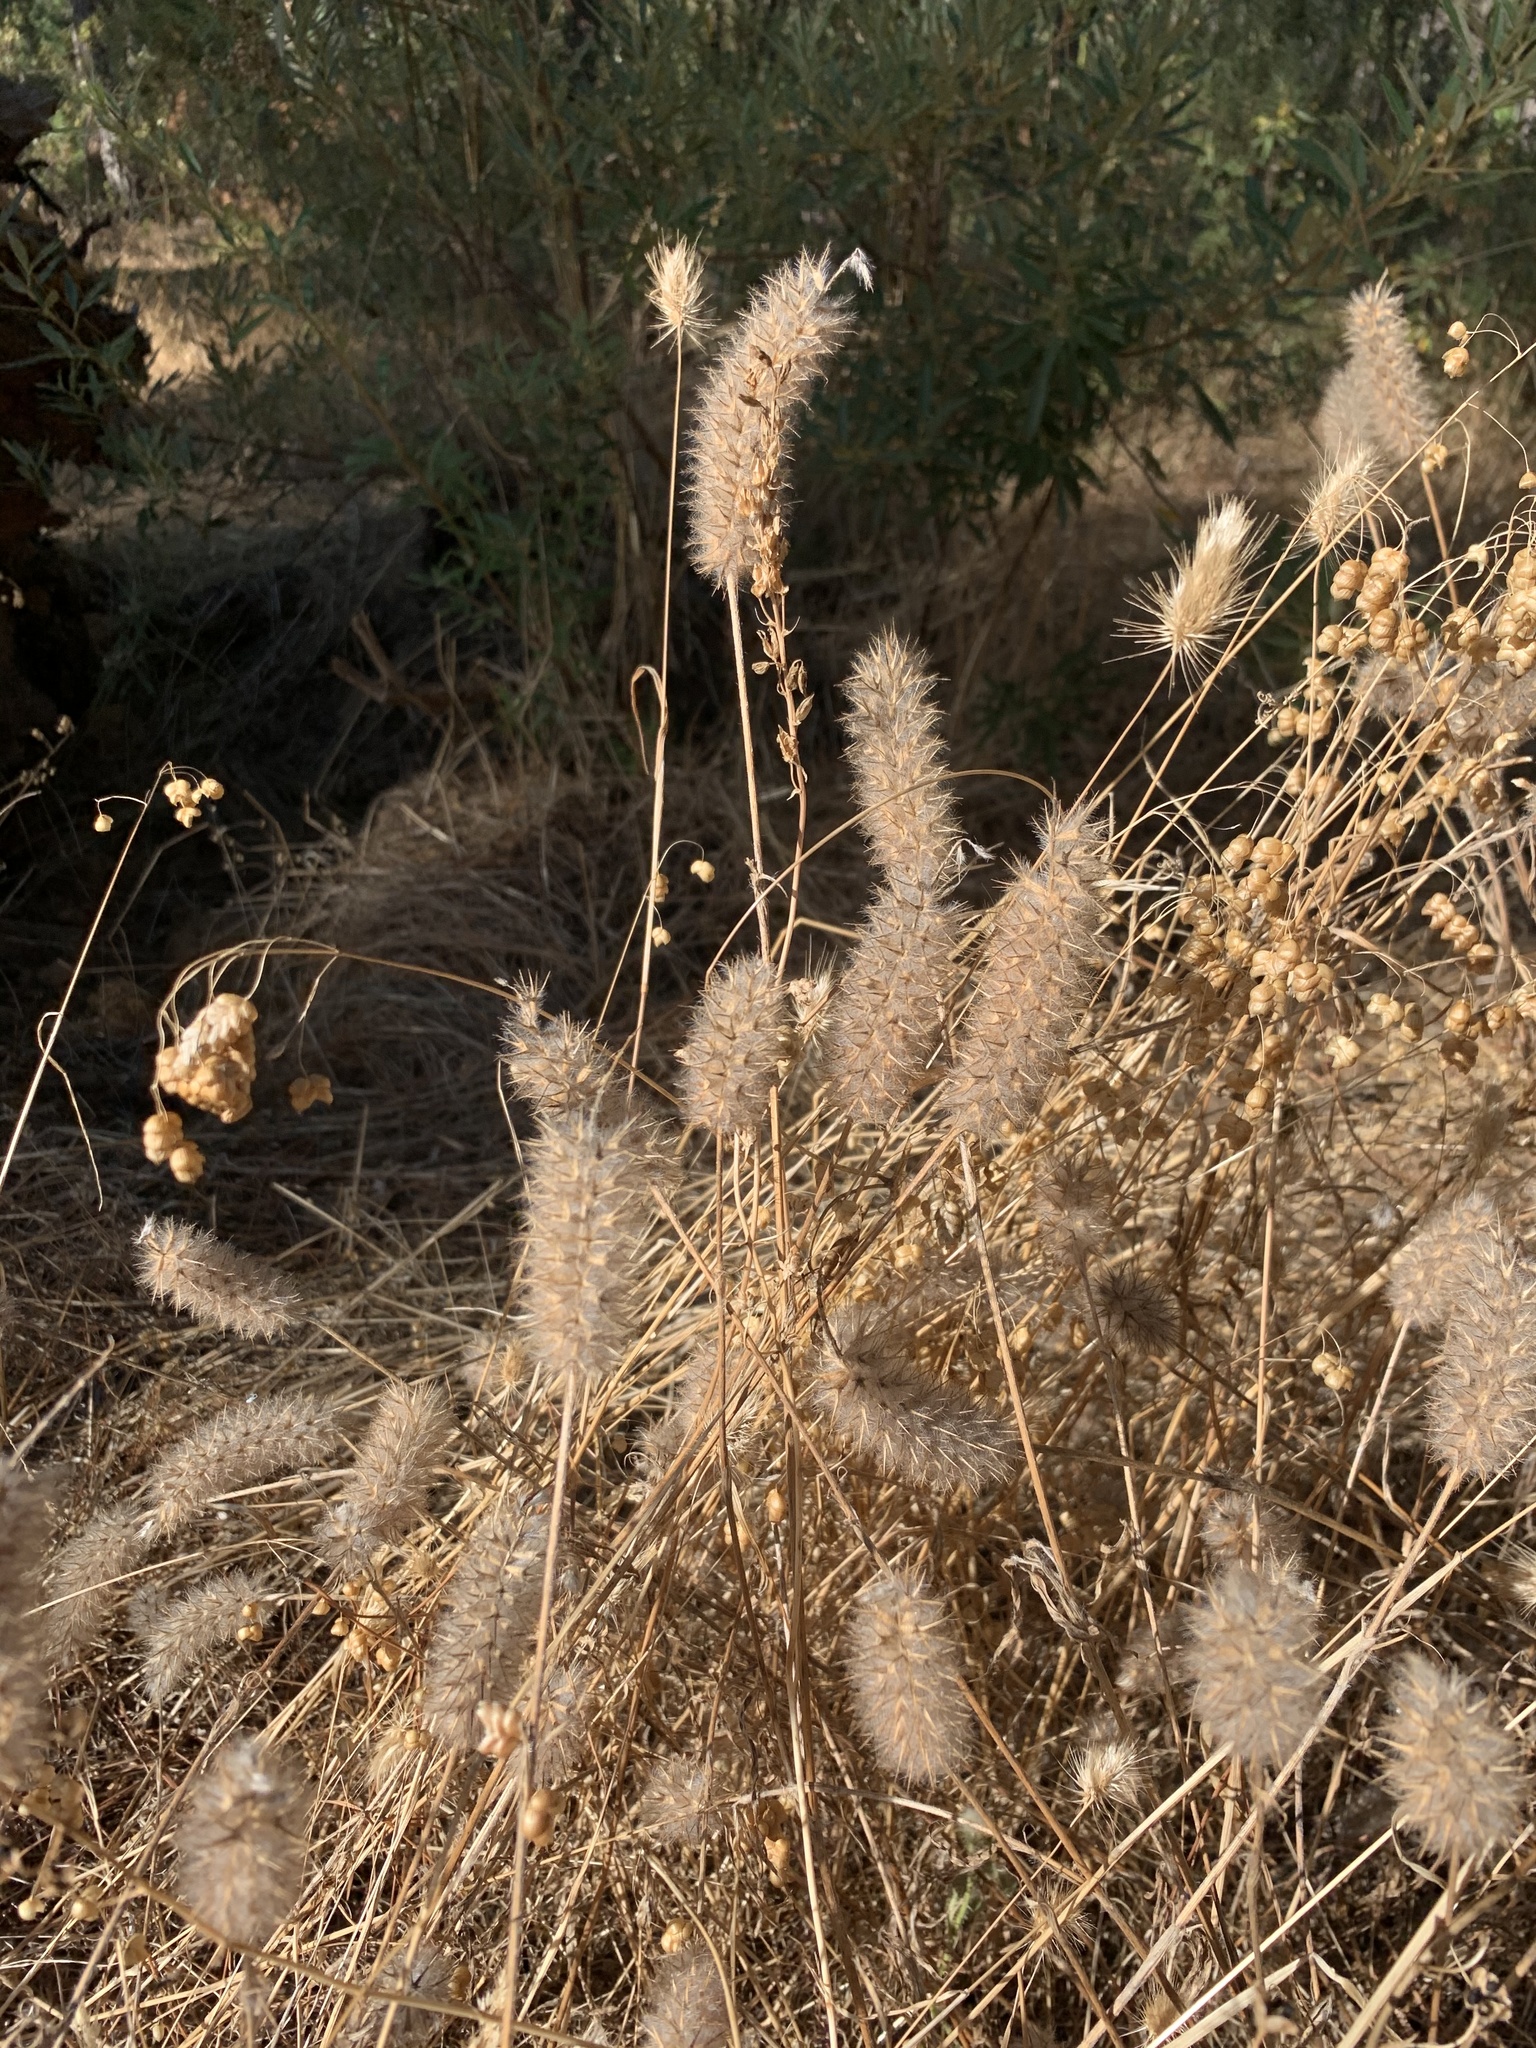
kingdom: Plantae
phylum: Tracheophyta
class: Magnoliopsida
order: Fabales
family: Fabaceae
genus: Trifolium
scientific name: Trifolium angustifolium
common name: Narrow clover
